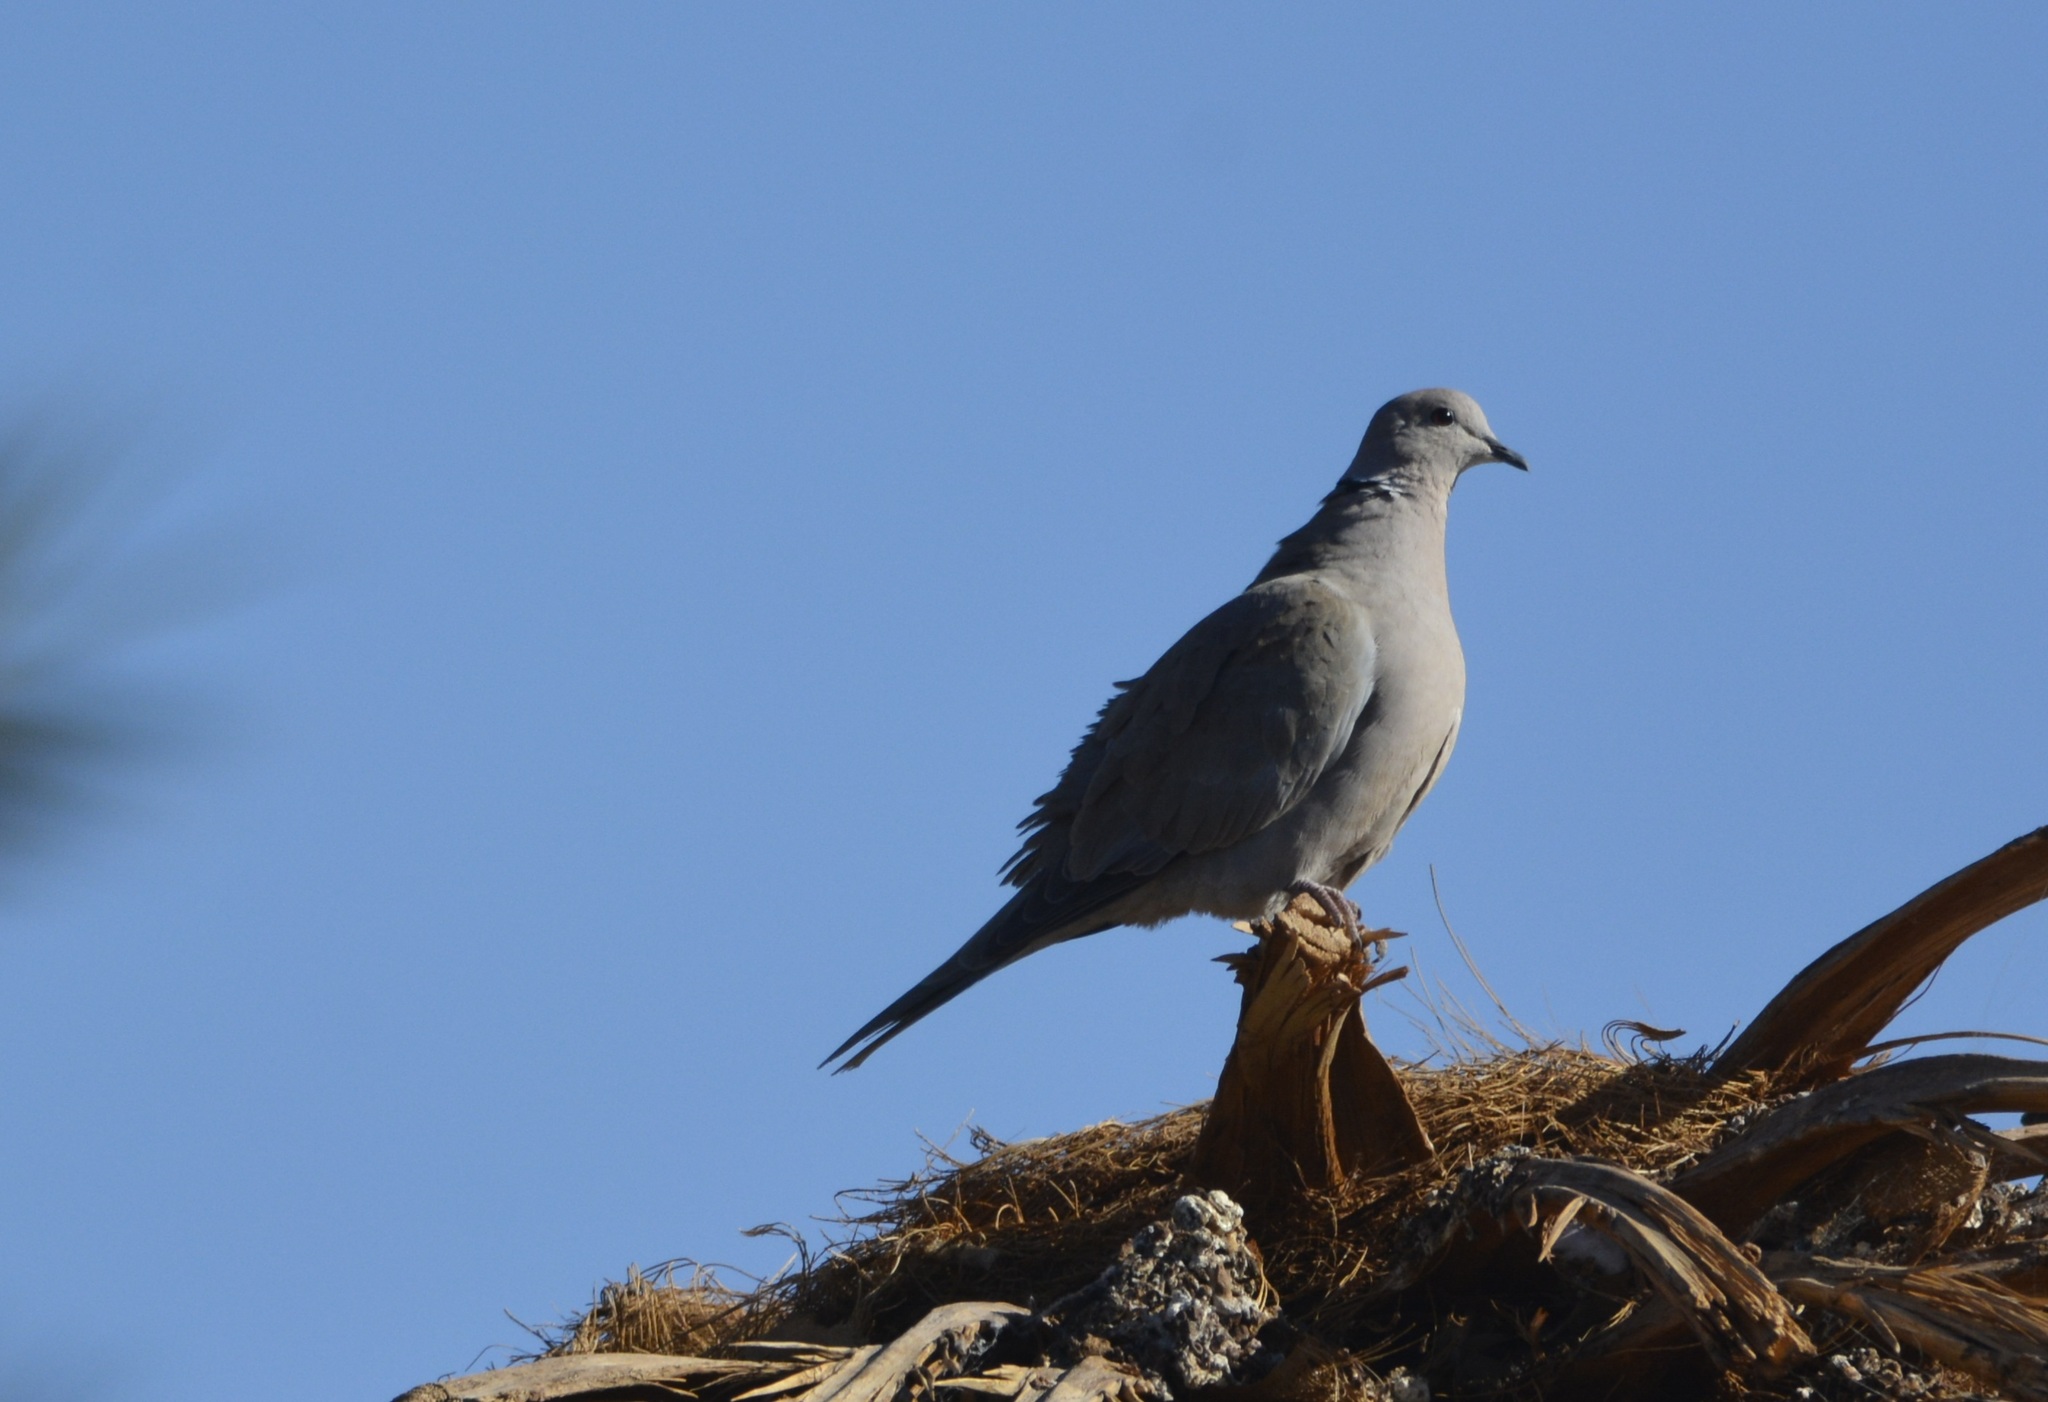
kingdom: Animalia
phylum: Chordata
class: Aves
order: Columbiformes
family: Columbidae
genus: Streptopelia
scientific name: Streptopelia decaocto
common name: Eurasian collared dove
